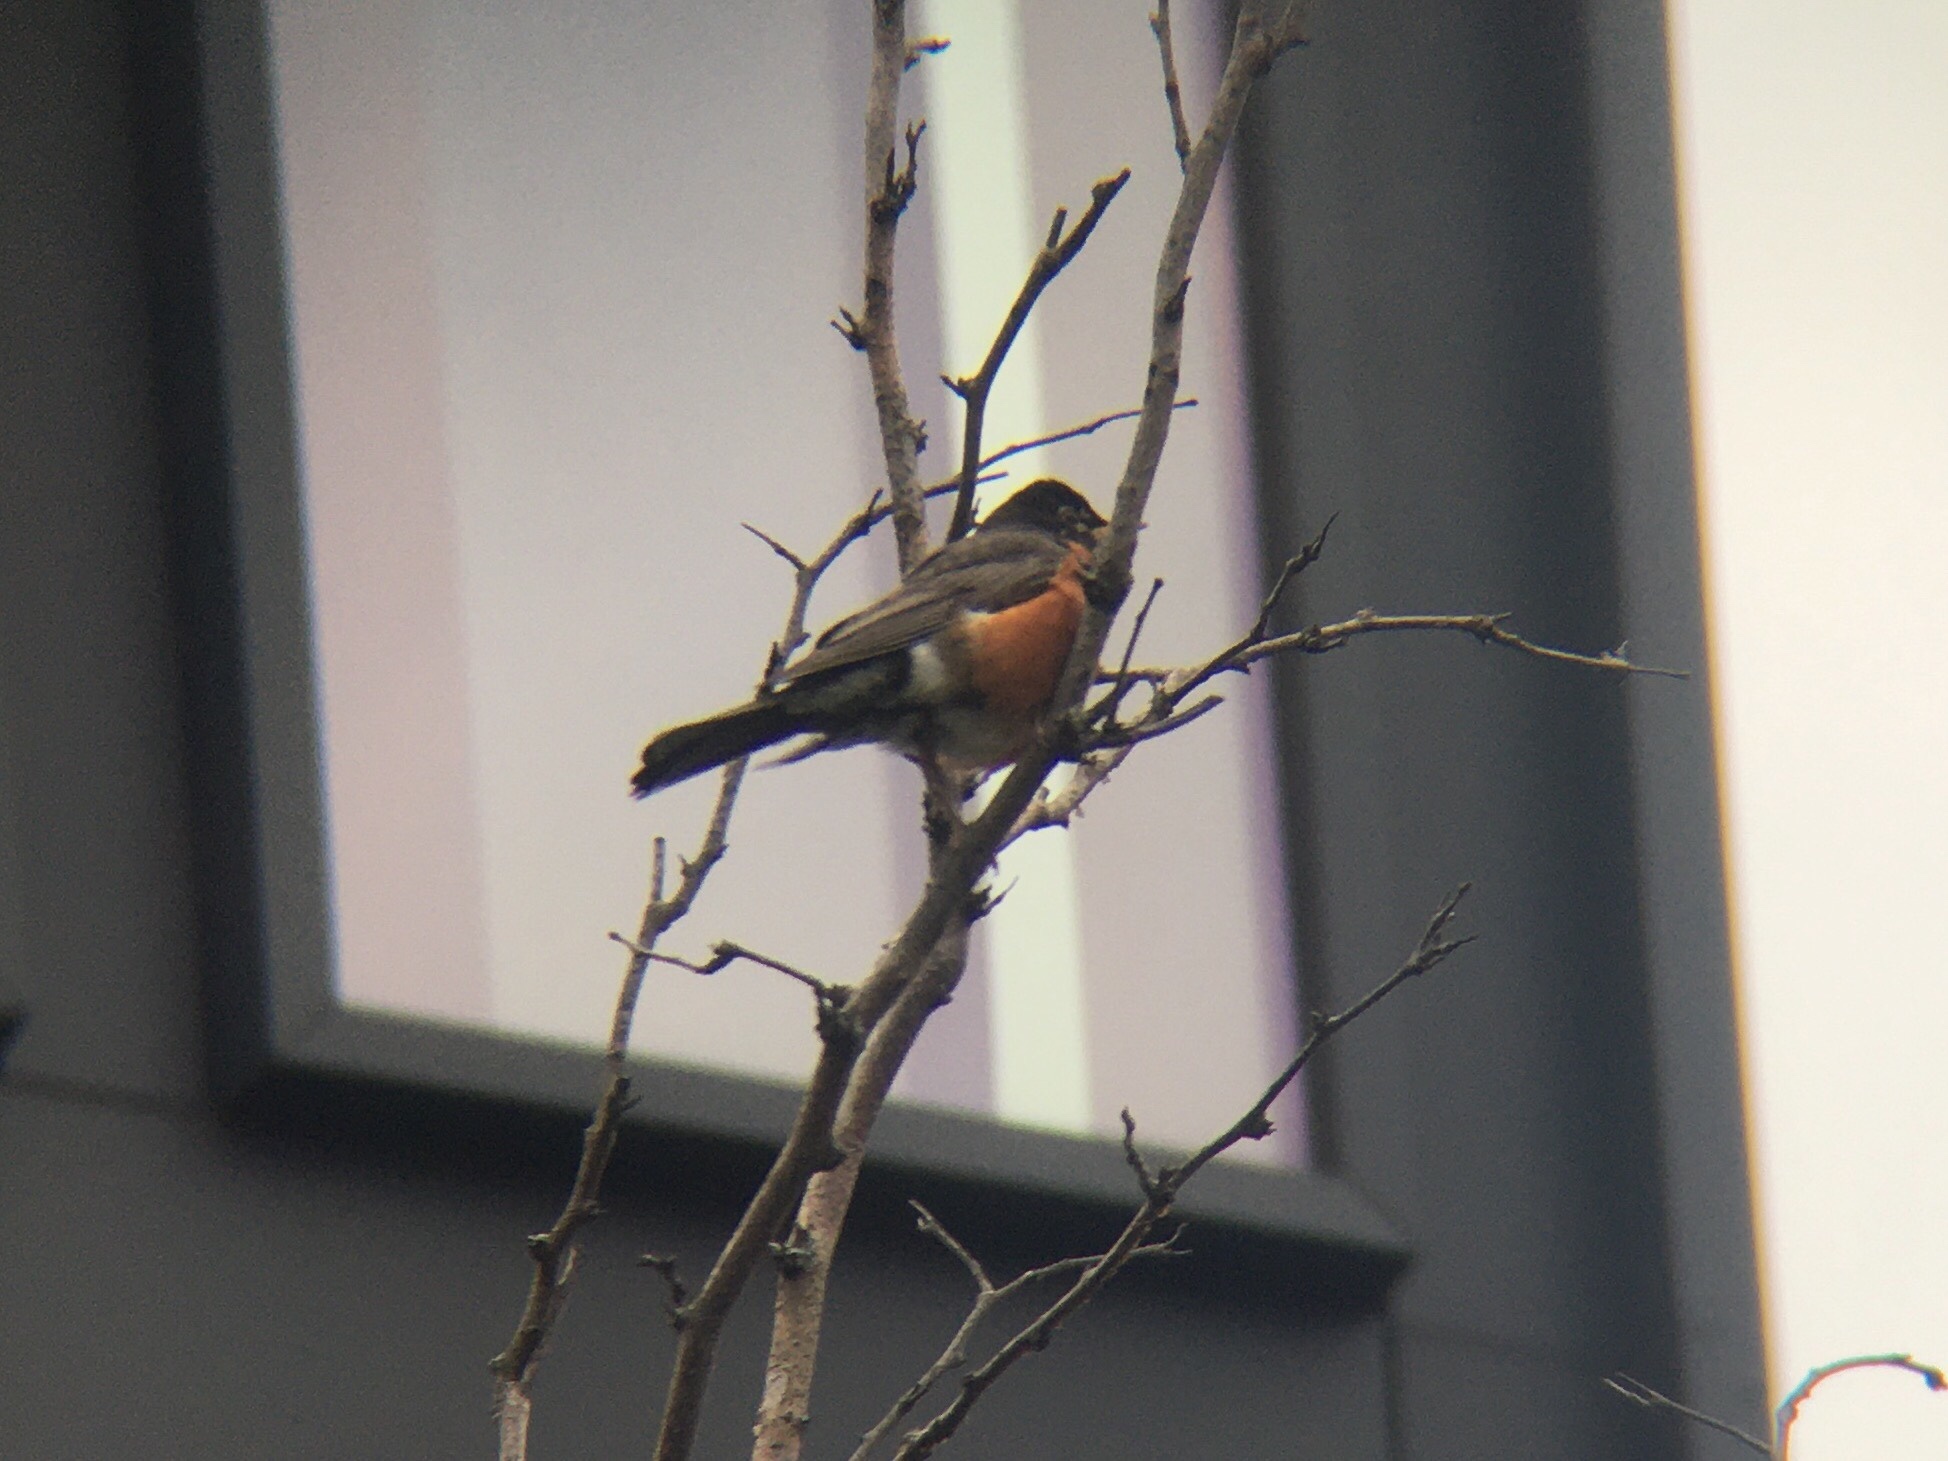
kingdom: Animalia
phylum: Chordata
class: Aves
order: Passeriformes
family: Turdidae
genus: Turdus
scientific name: Turdus migratorius
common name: American robin
